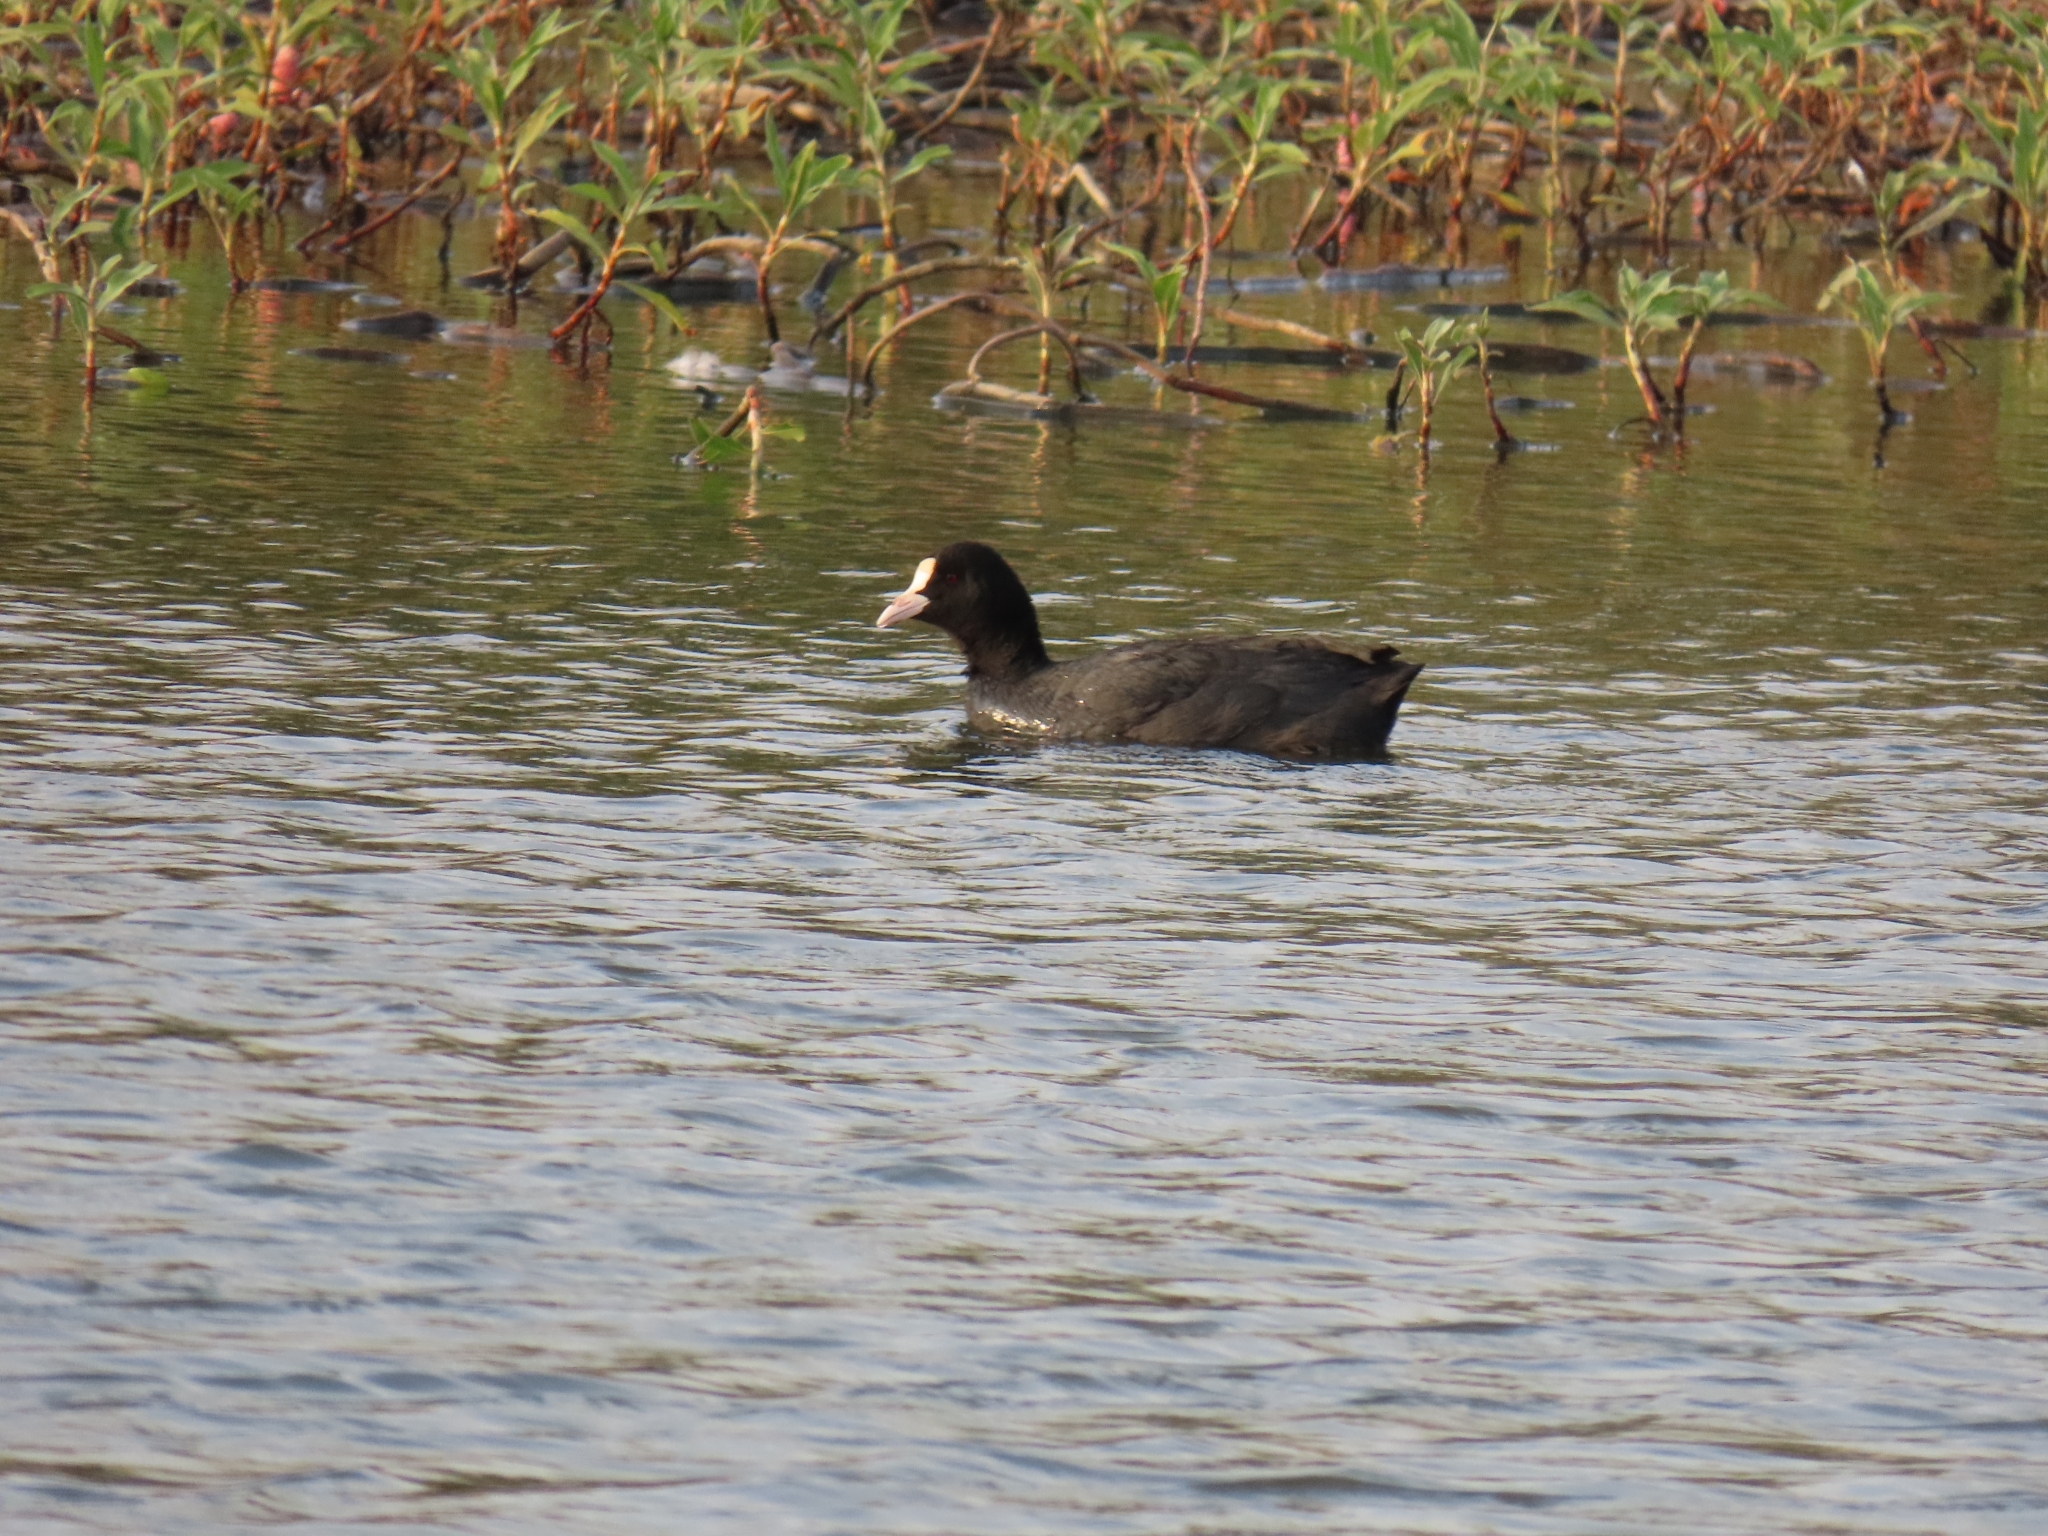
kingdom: Animalia
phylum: Chordata
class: Aves
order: Gruiformes
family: Rallidae
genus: Fulica
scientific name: Fulica atra
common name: Eurasian coot
